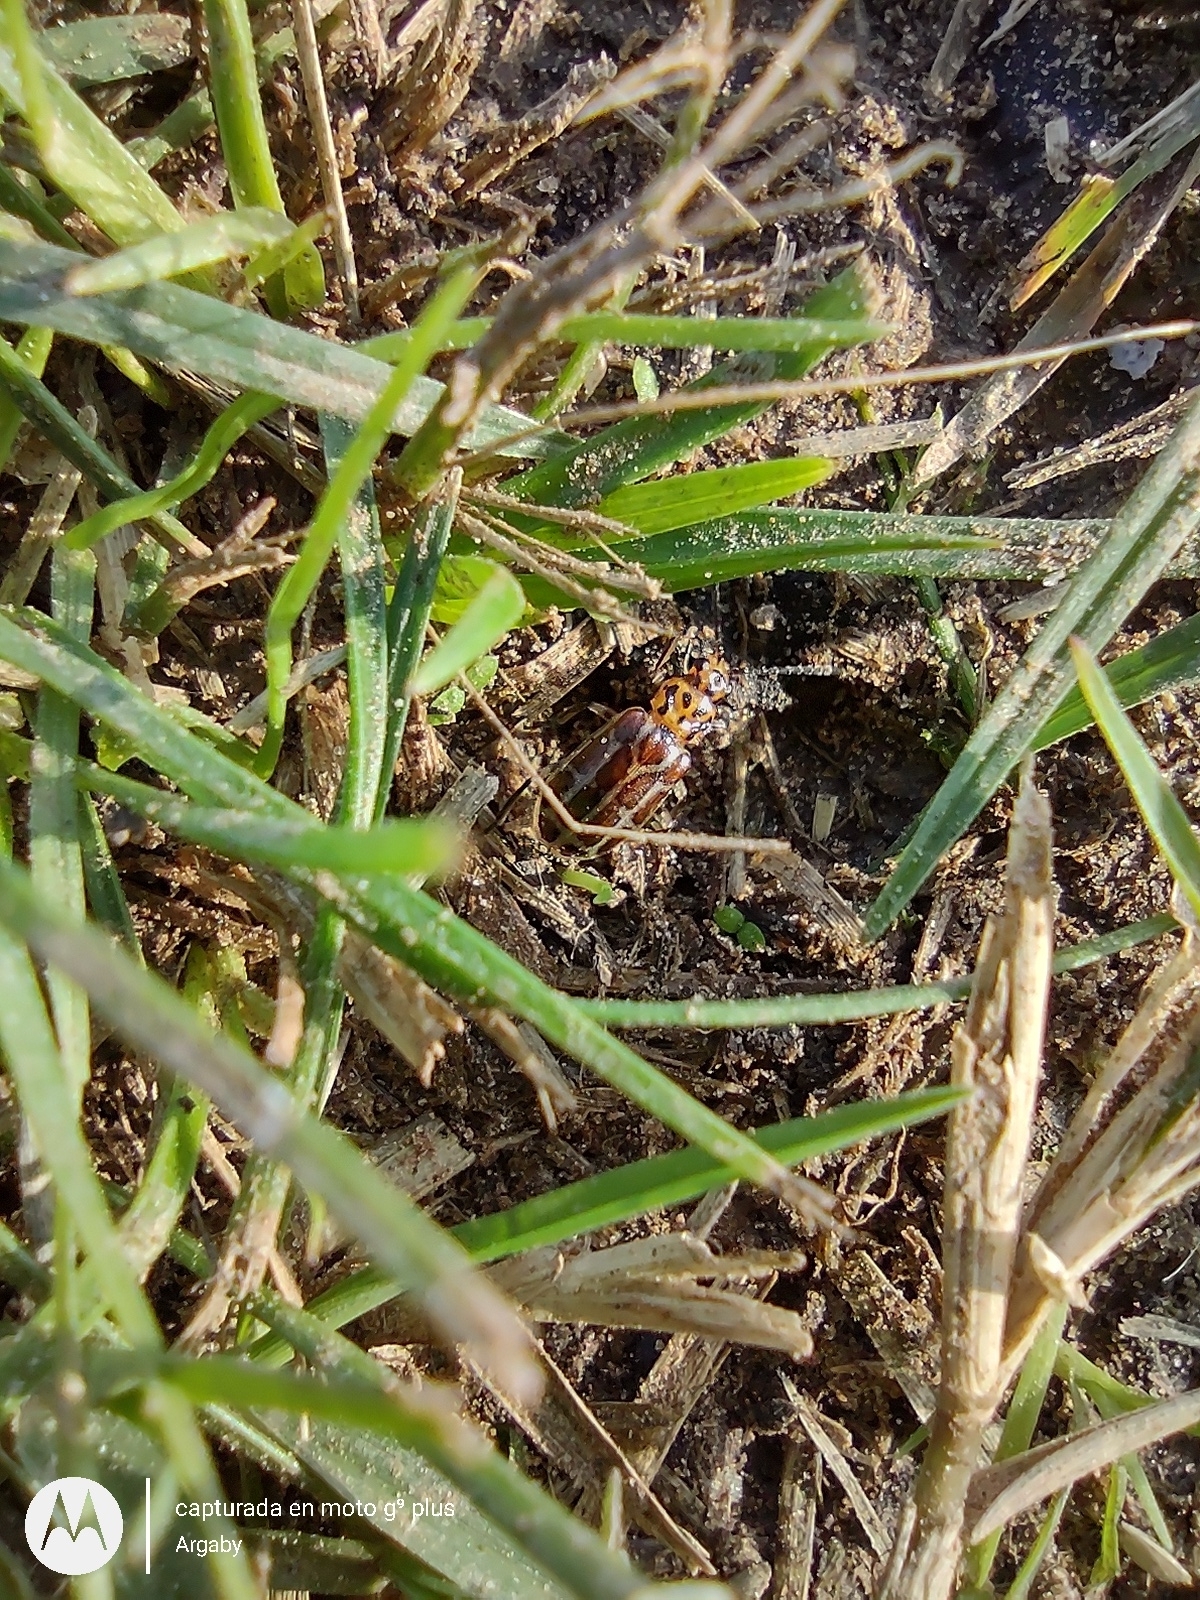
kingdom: Animalia
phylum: Arthropoda
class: Insecta
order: Coleoptera
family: Chrysomelidae
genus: Anisobrotica
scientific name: Anisobrotica
